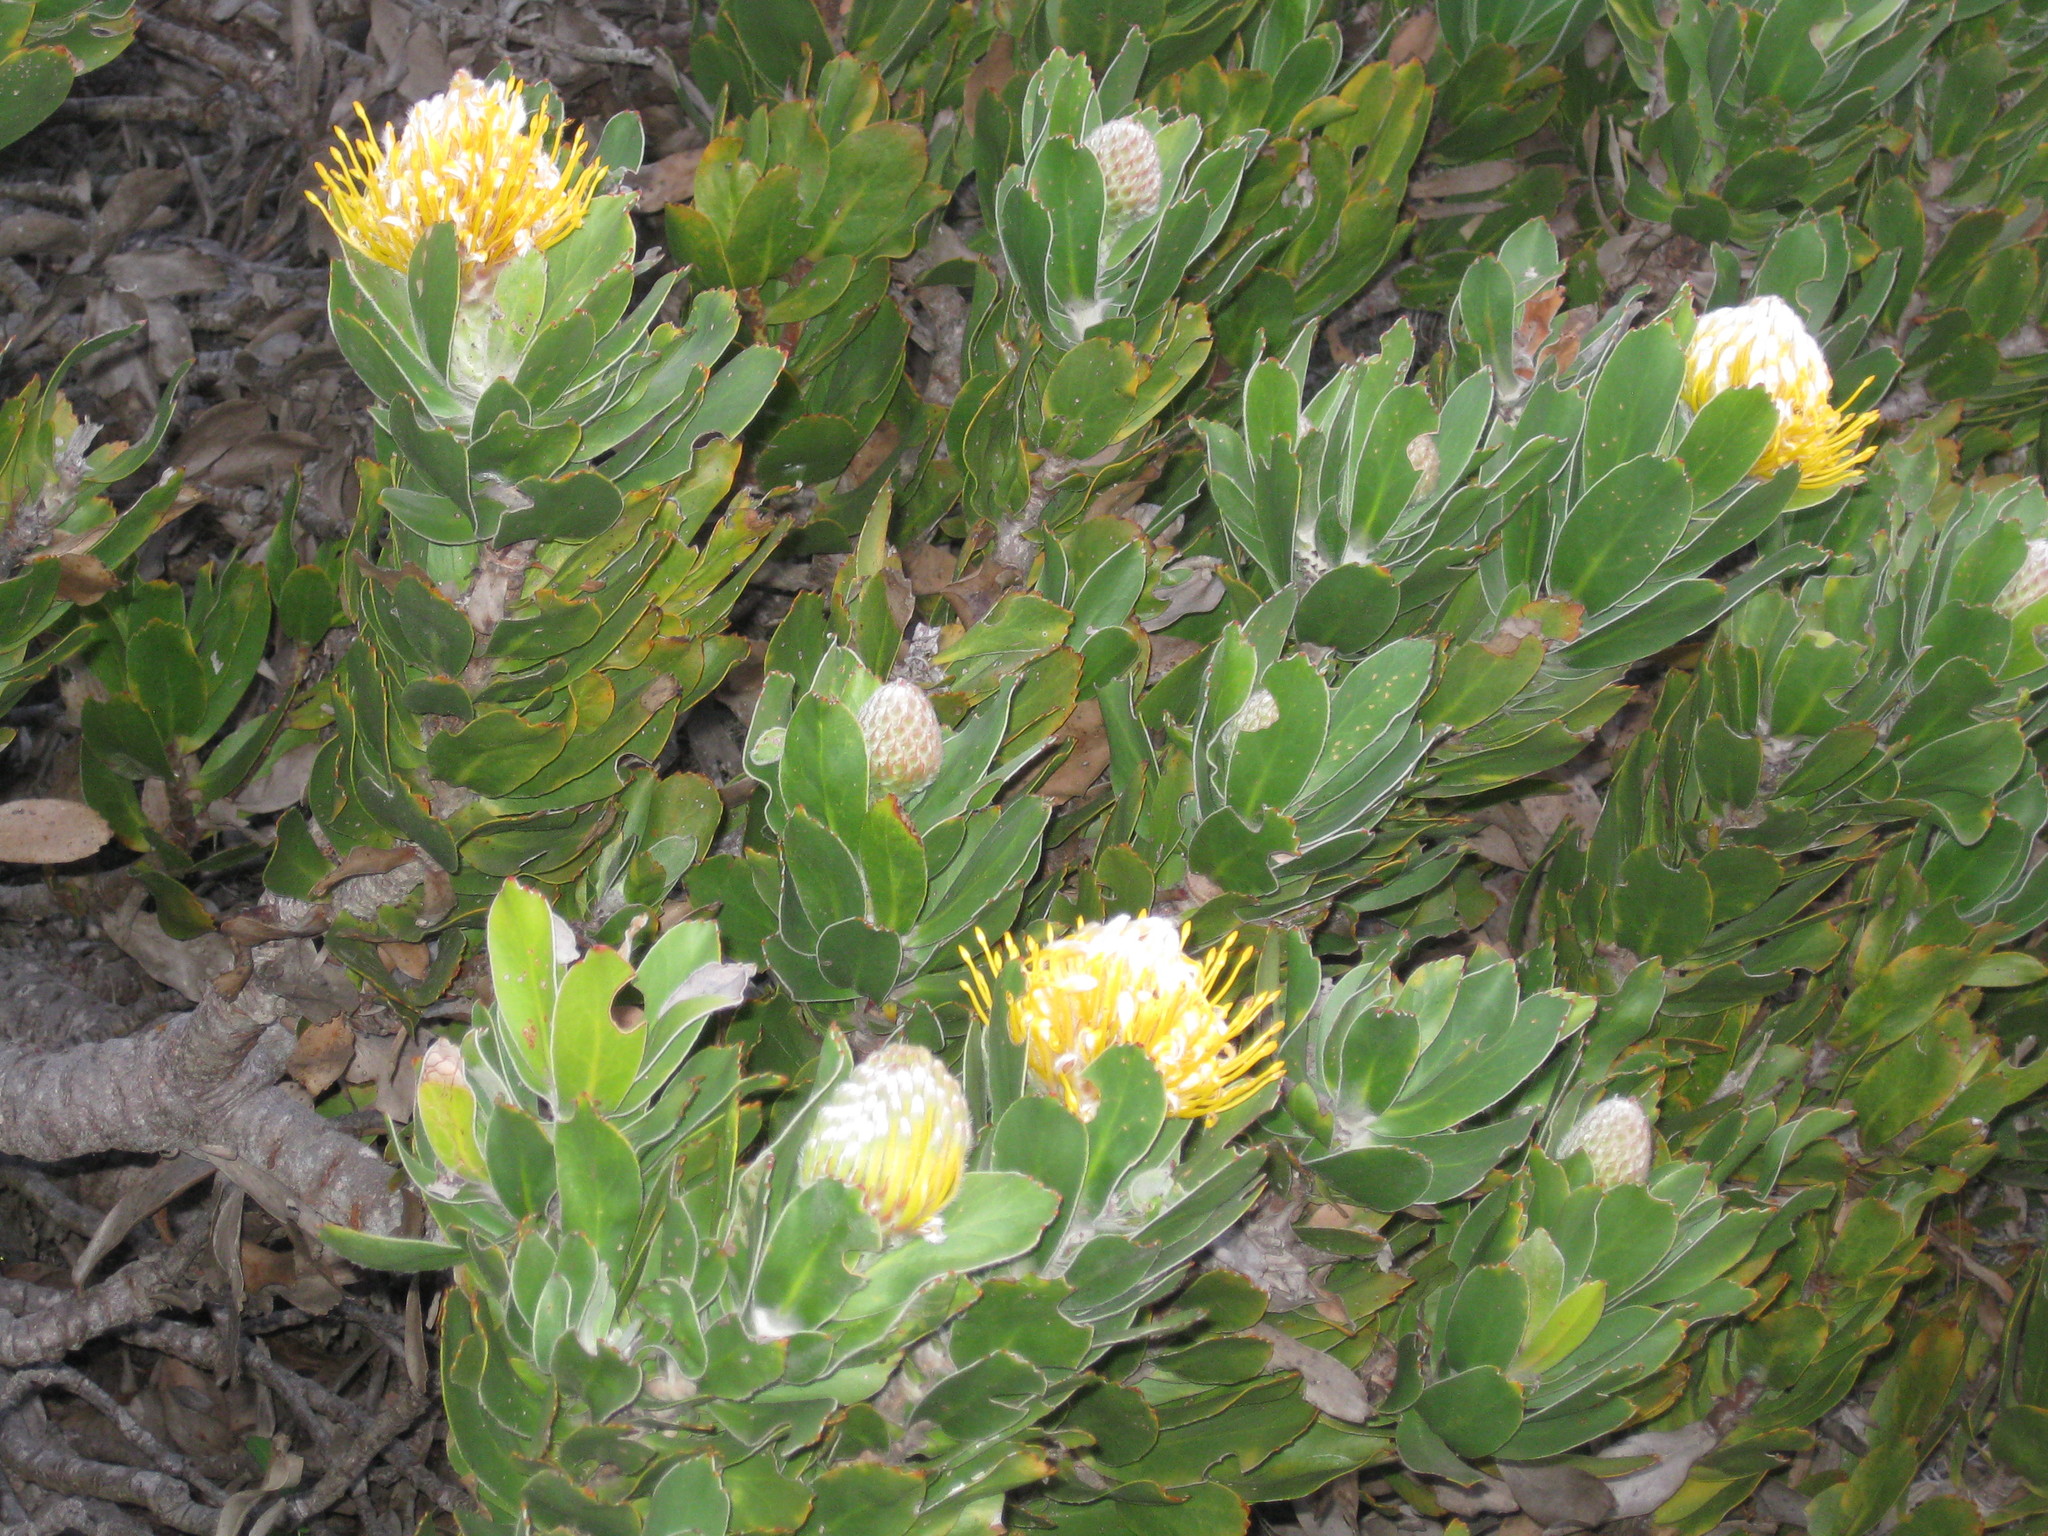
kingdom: Plantae
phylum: Tracheophyta
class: Magnoliopsida
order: Proteales
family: Proteaceae
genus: Leucospermum
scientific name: Leucospermum conocarpodendron
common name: Tree pincushion
